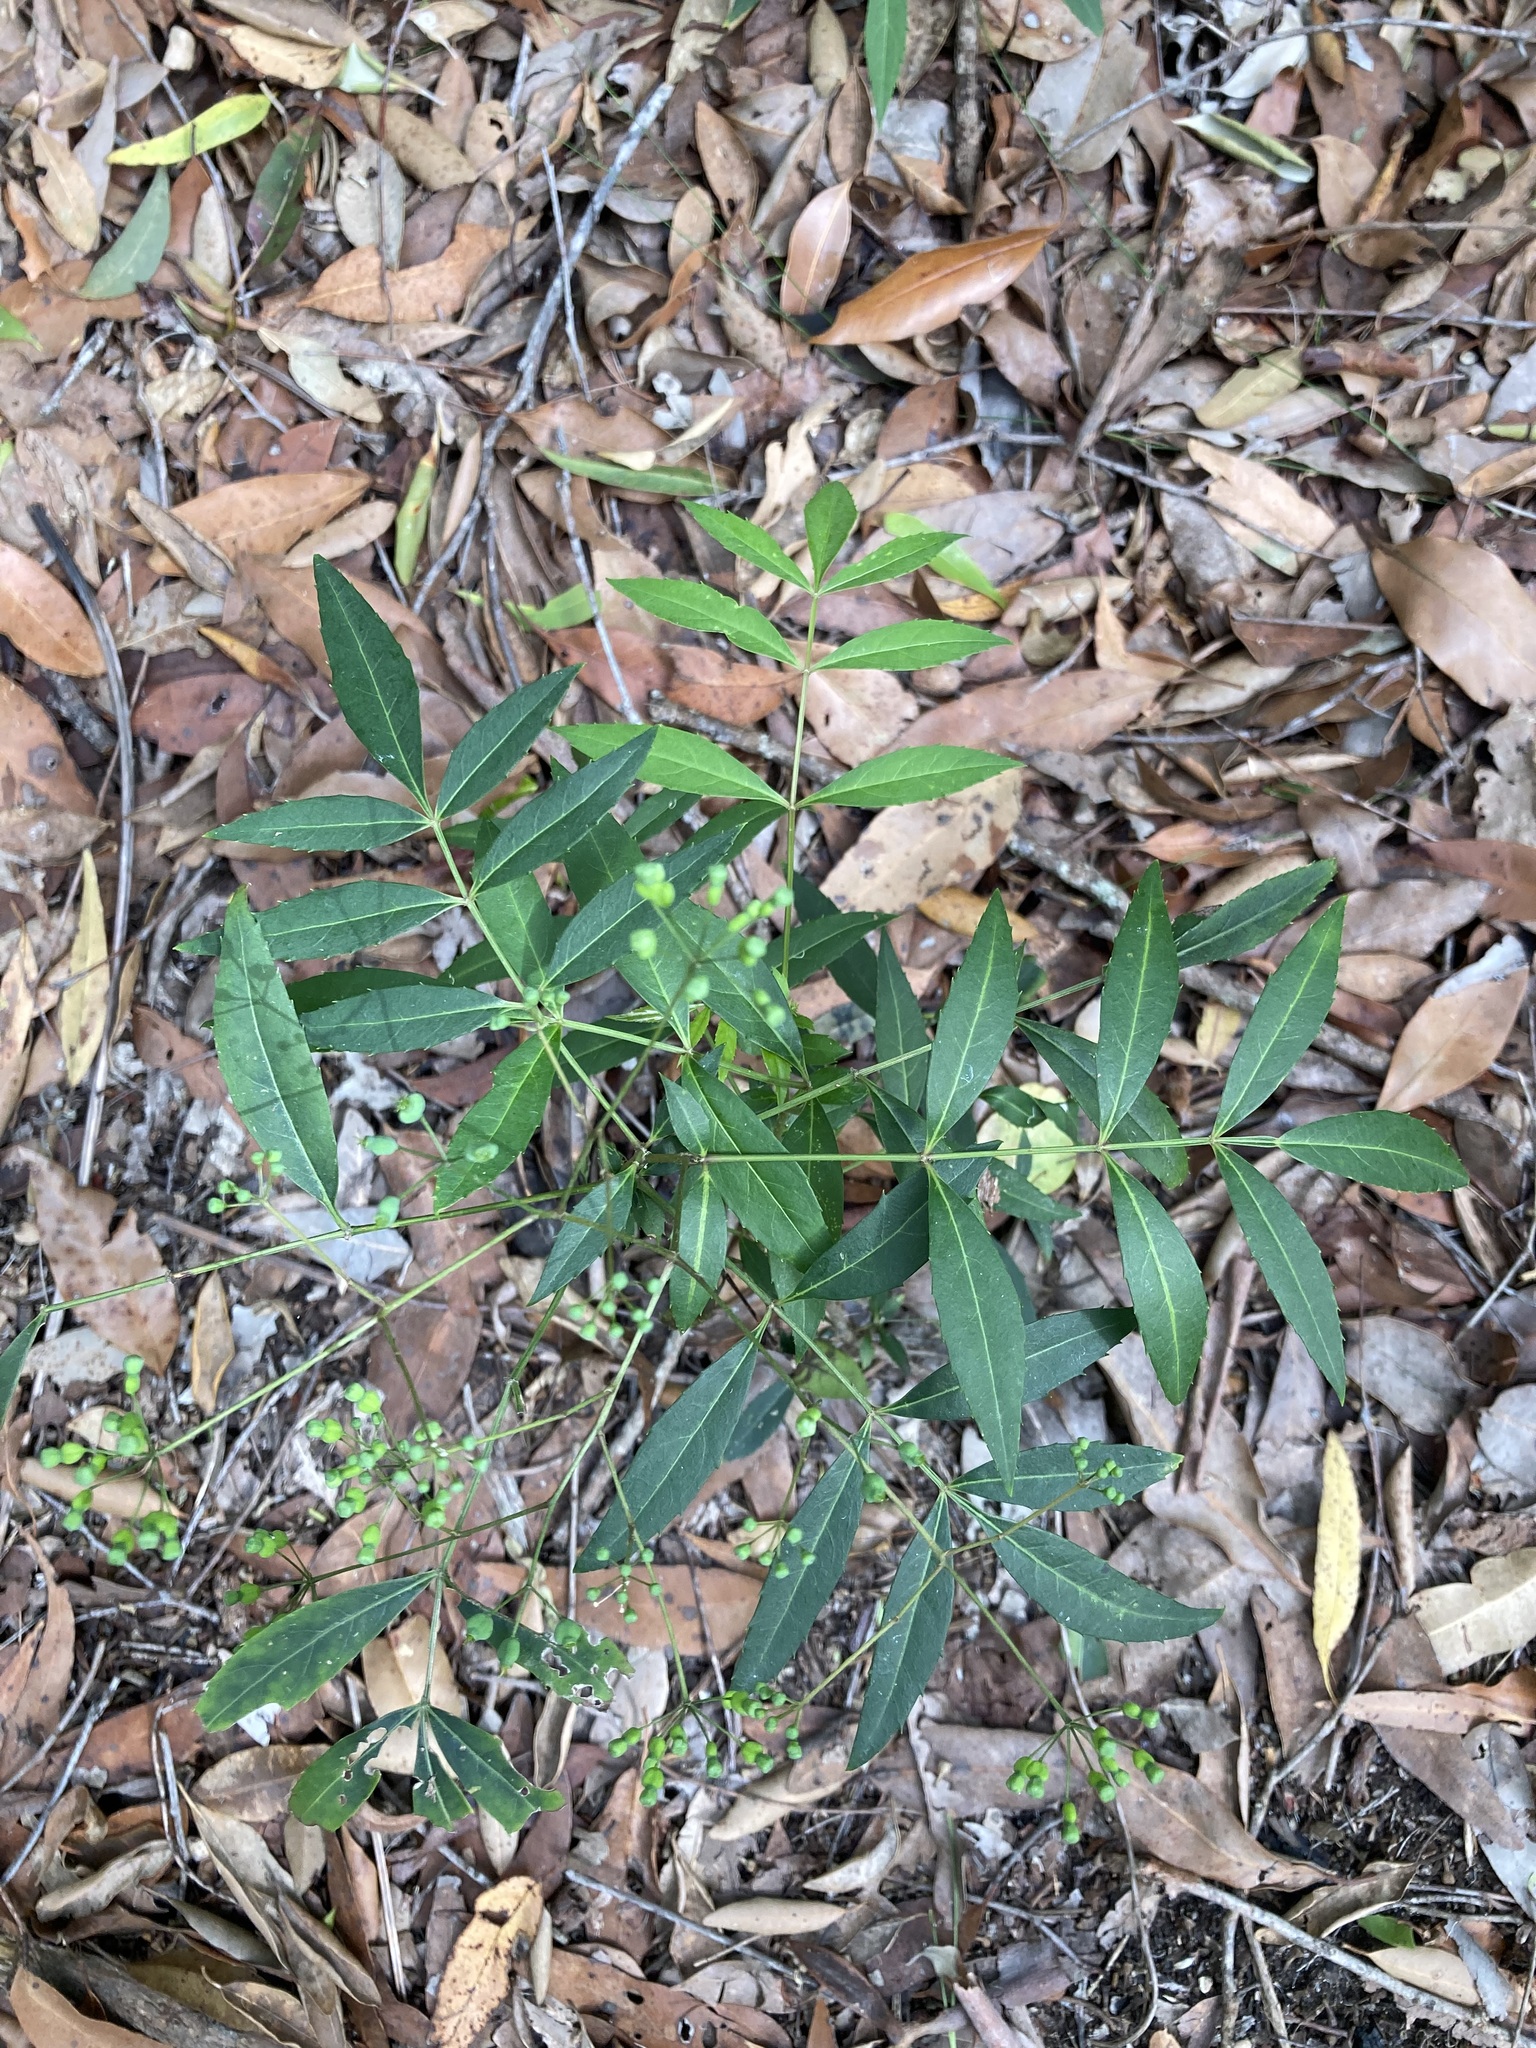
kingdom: Plantae
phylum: Tracheophyta
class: Magnoliopsida
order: Apiales
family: Araliaceae
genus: Polyscias
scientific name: Polyscias sambucifolia
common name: Elderberry-ash
